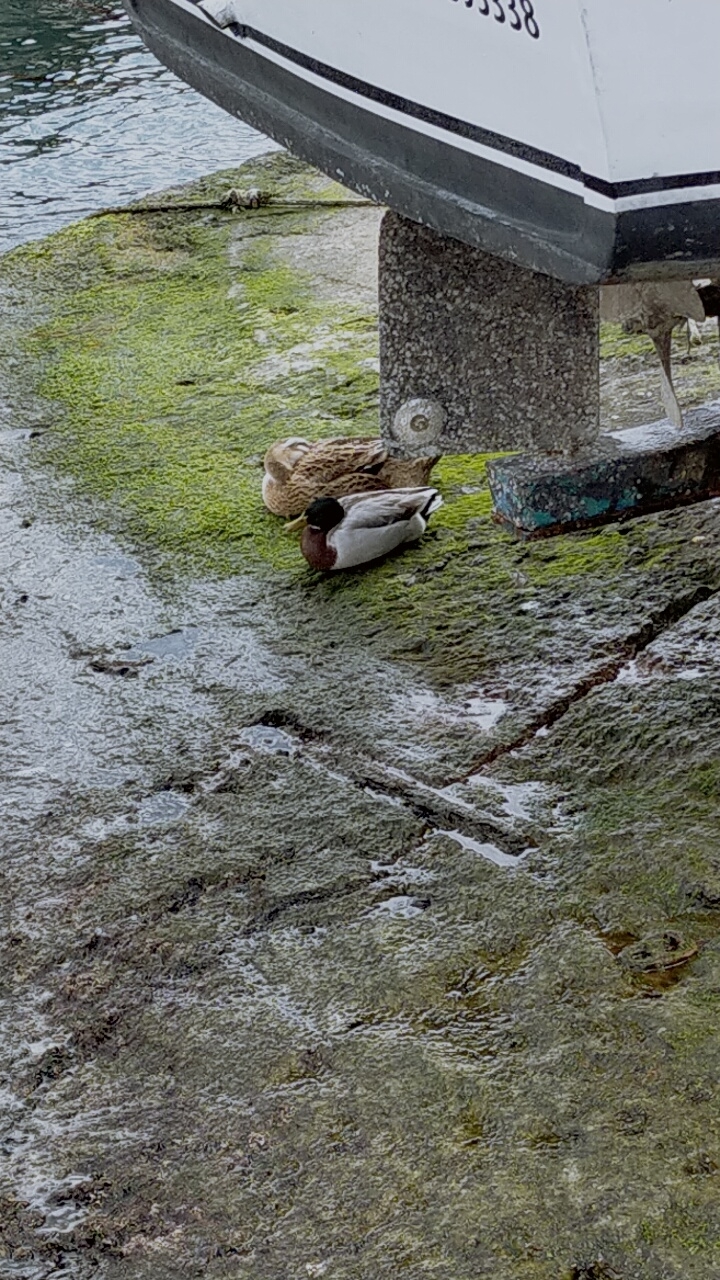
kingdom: Animalia
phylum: Chordata
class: Aves
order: Anseriformes
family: Anatidae
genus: Anas
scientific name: Anas platyrhynchos
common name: Mallard
